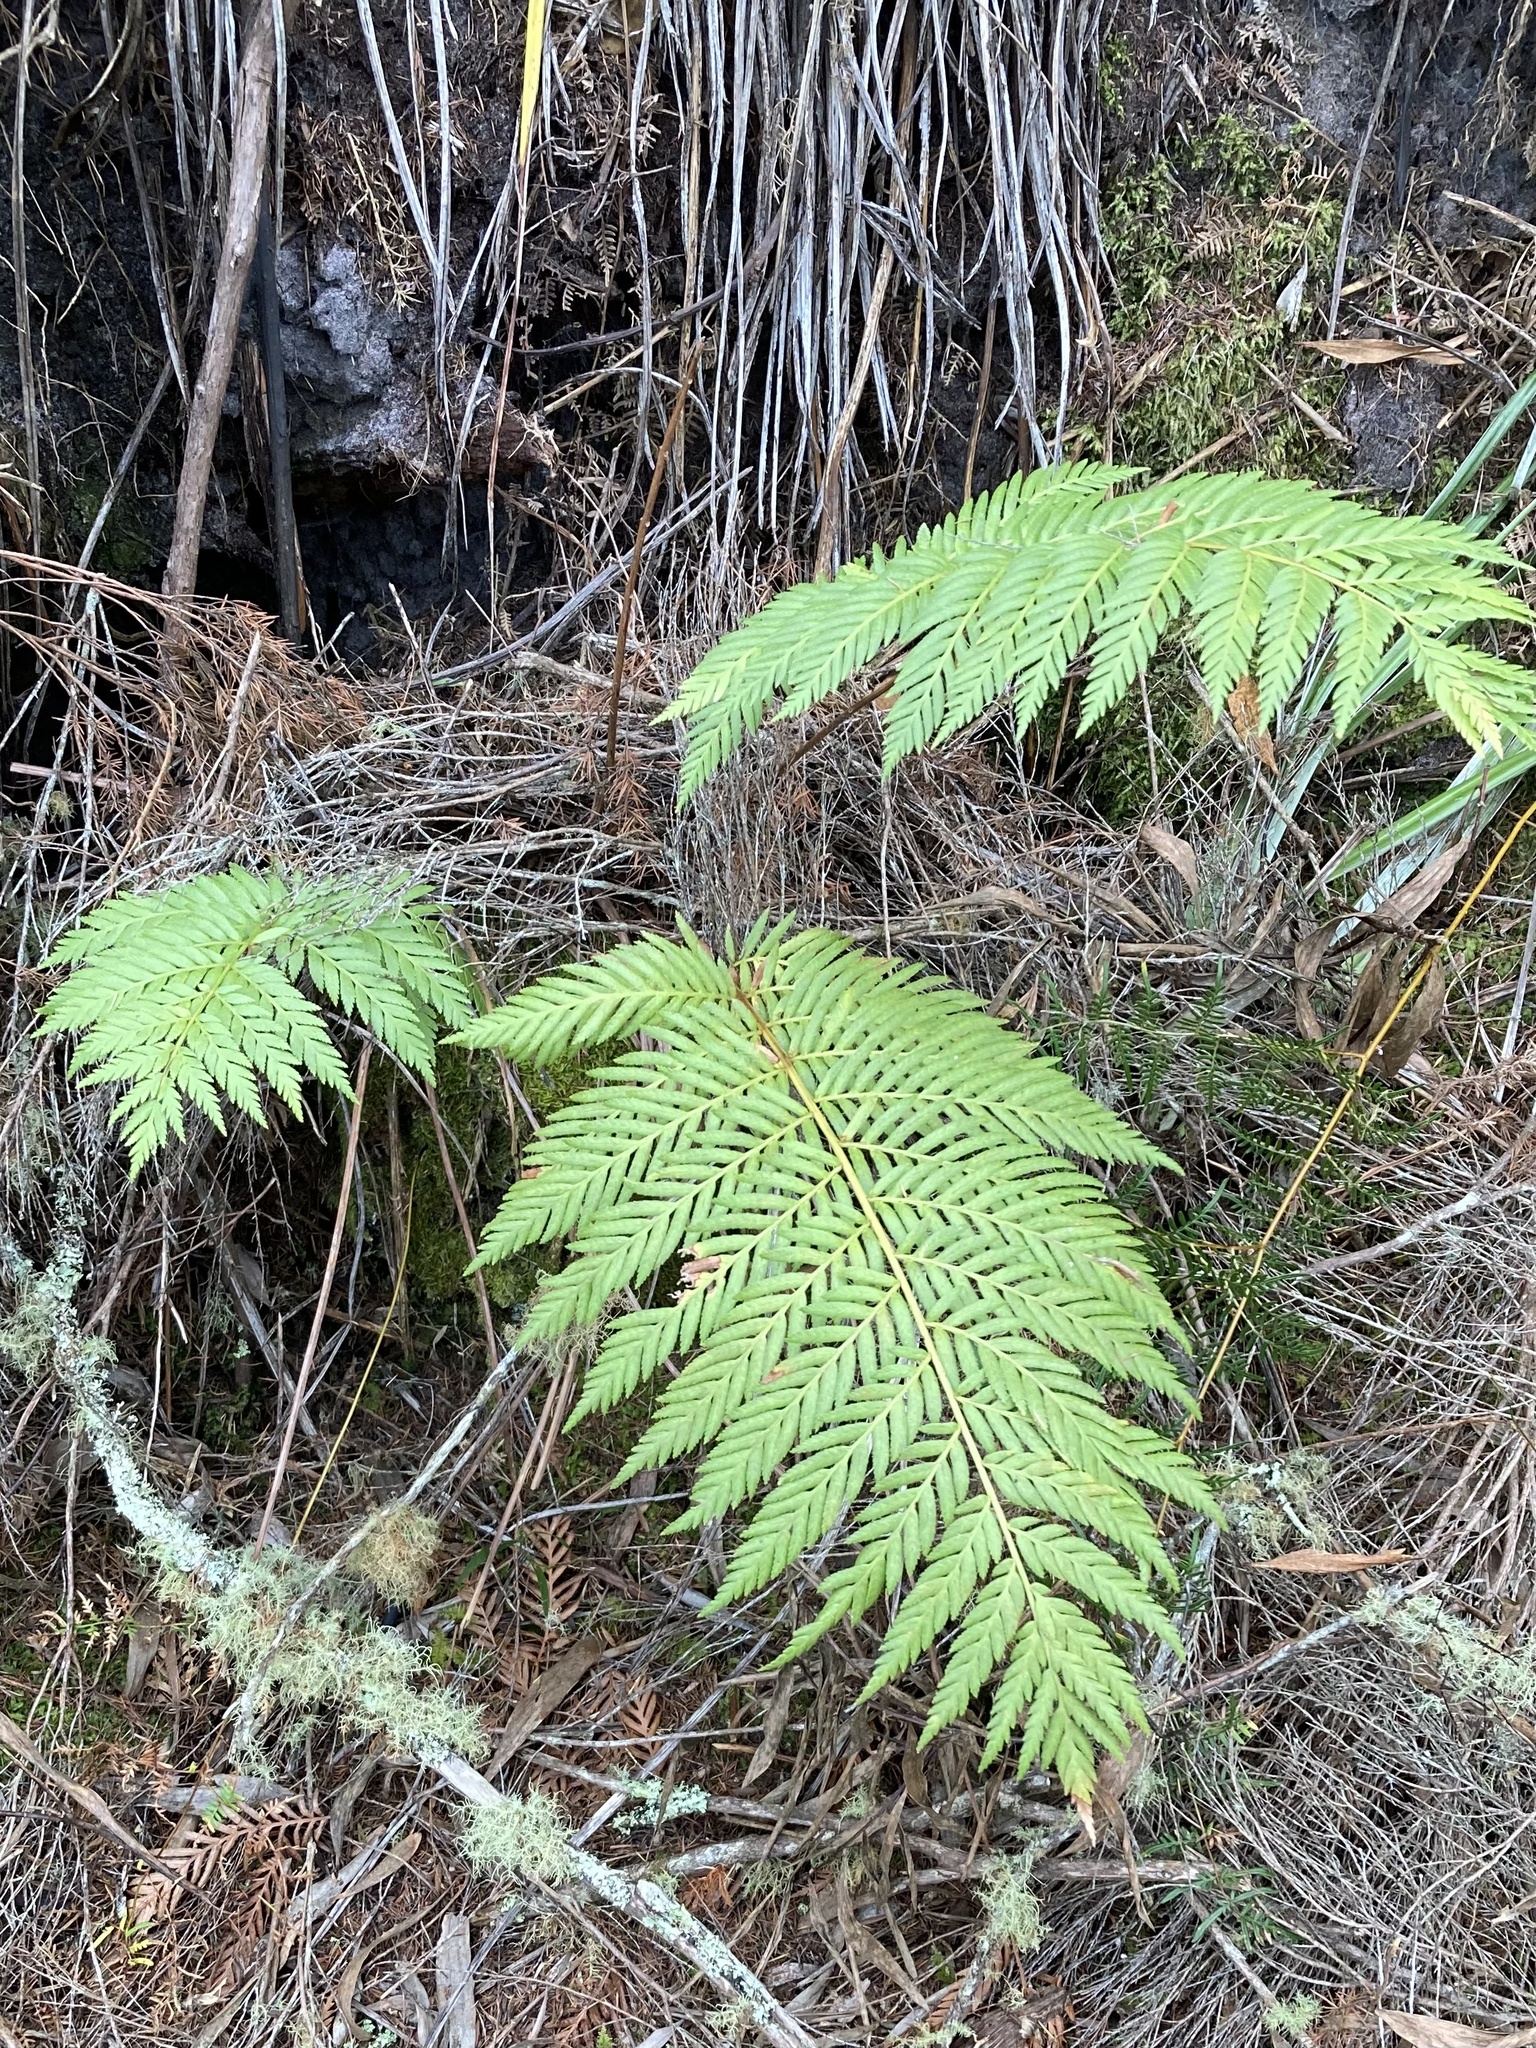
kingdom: Plantae
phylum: Tracheophyta
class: Polypodiopsida
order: Osmundales
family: Osmundaceae
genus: Todea
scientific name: Todea barbara
